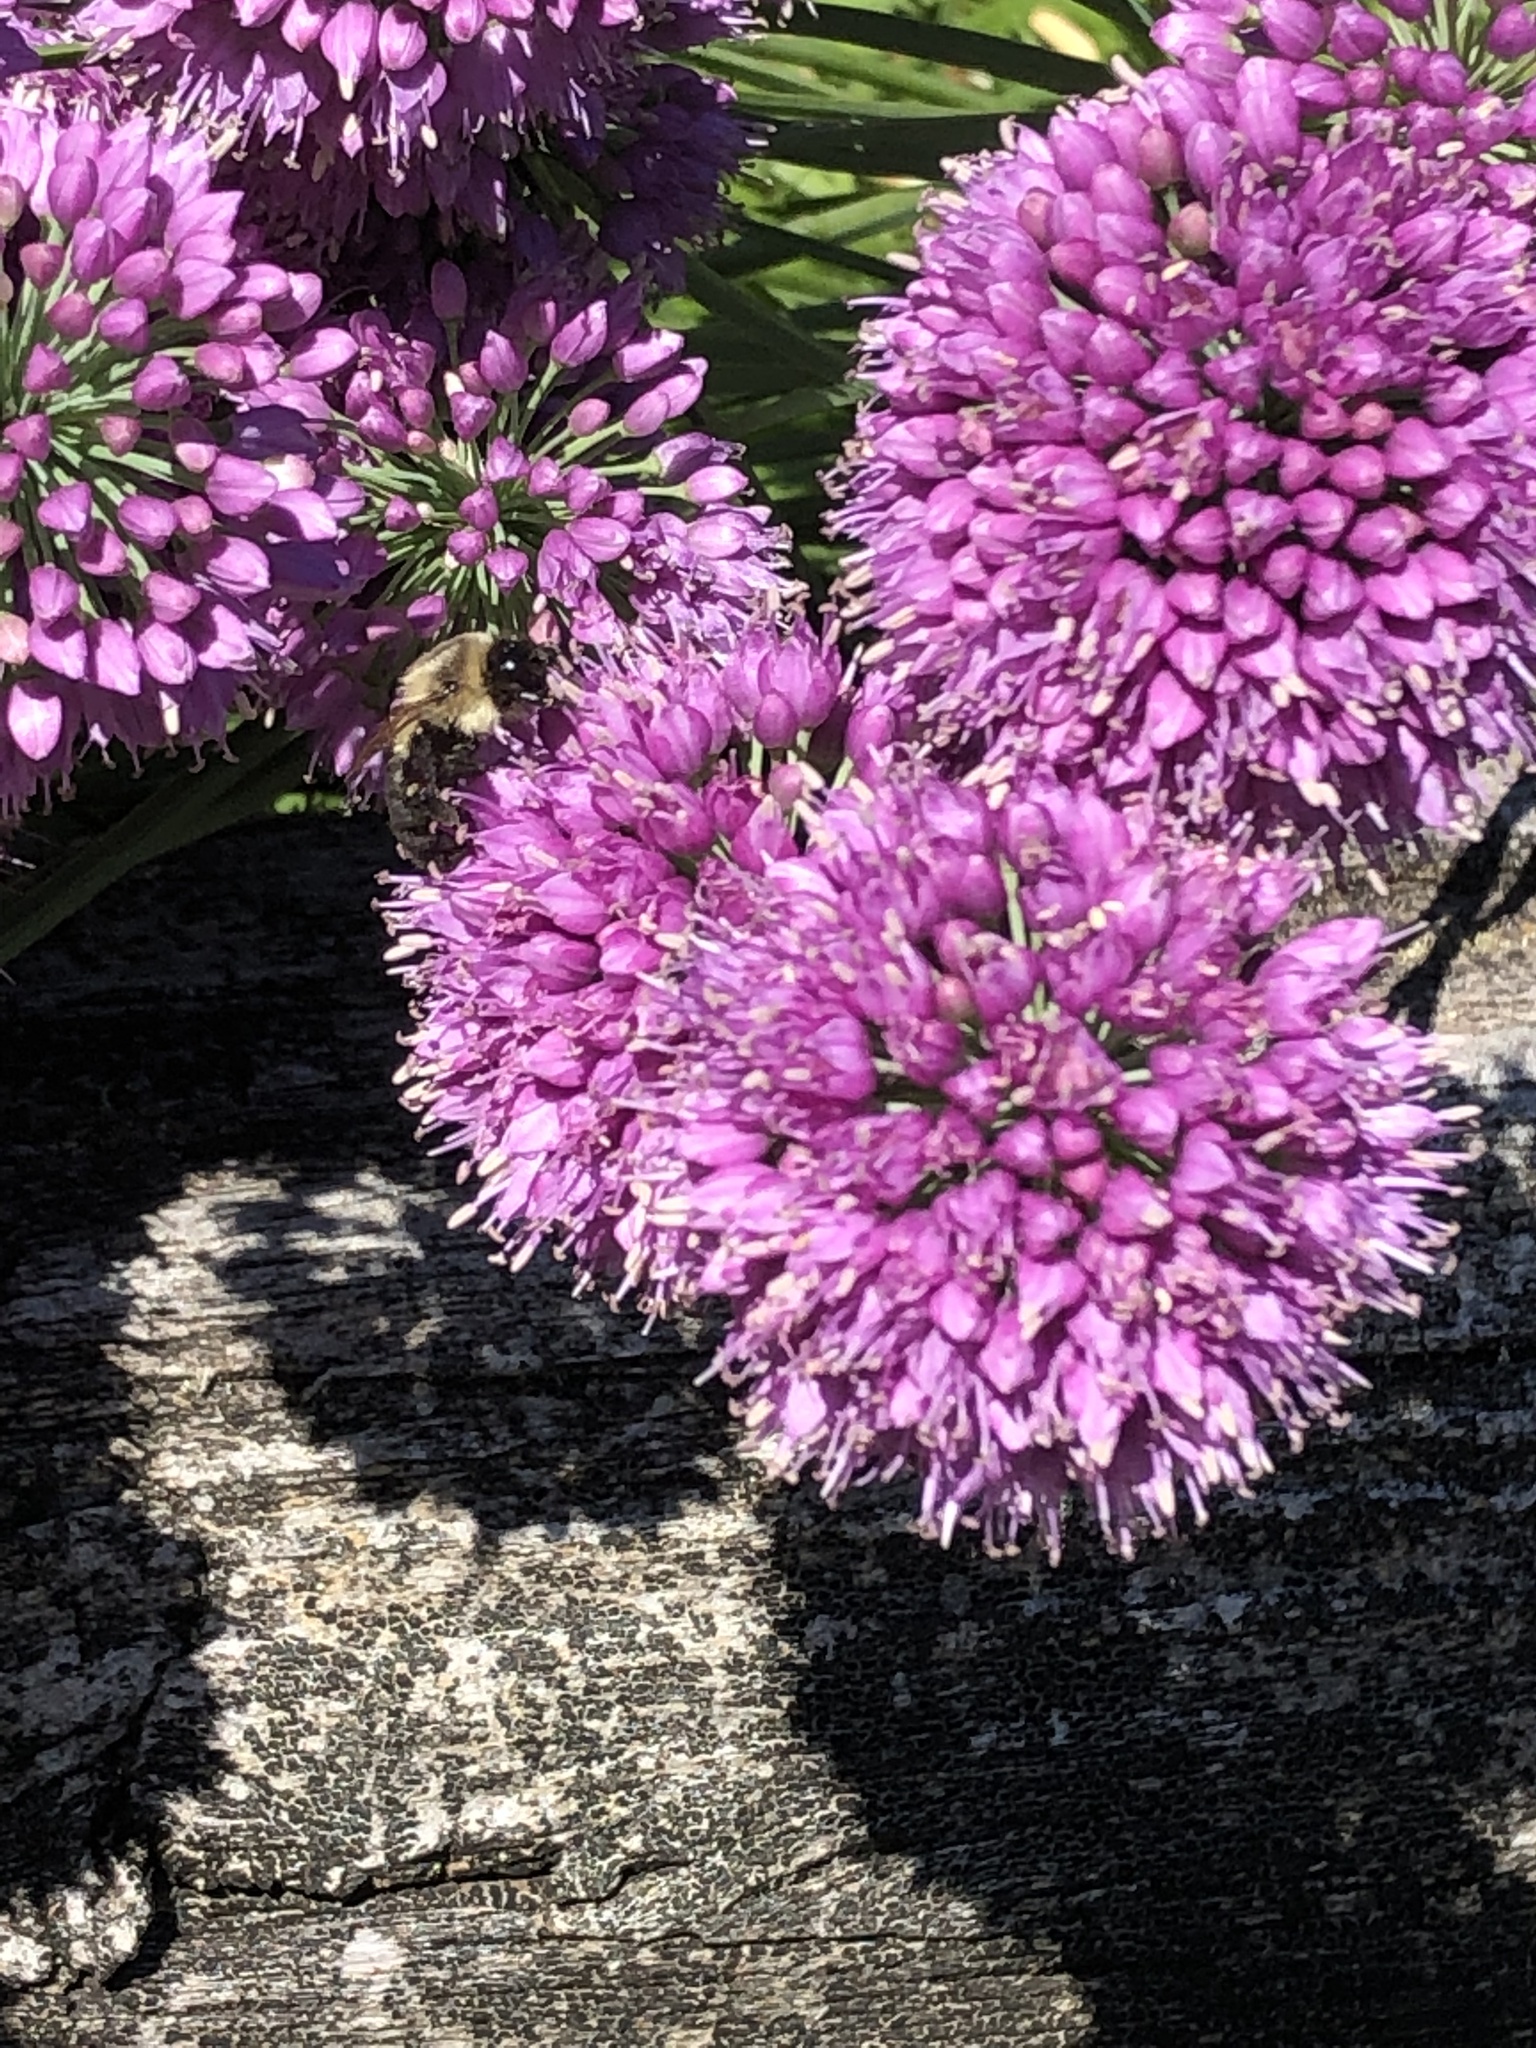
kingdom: Animalia
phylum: Arthropoda
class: Insecta
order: Hymenoptera
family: Apidae
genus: Bombus
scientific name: Bombus impatiens
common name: Common eastern bumble bee
